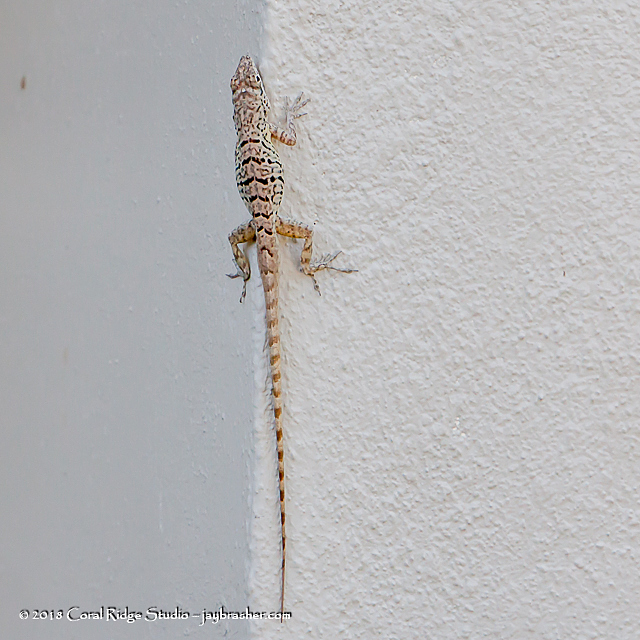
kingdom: Animalia
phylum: Chordata
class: Squamata
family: Dactyloidae
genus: Anolis
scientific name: Anolis bonairensis
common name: Ruthven's anole
